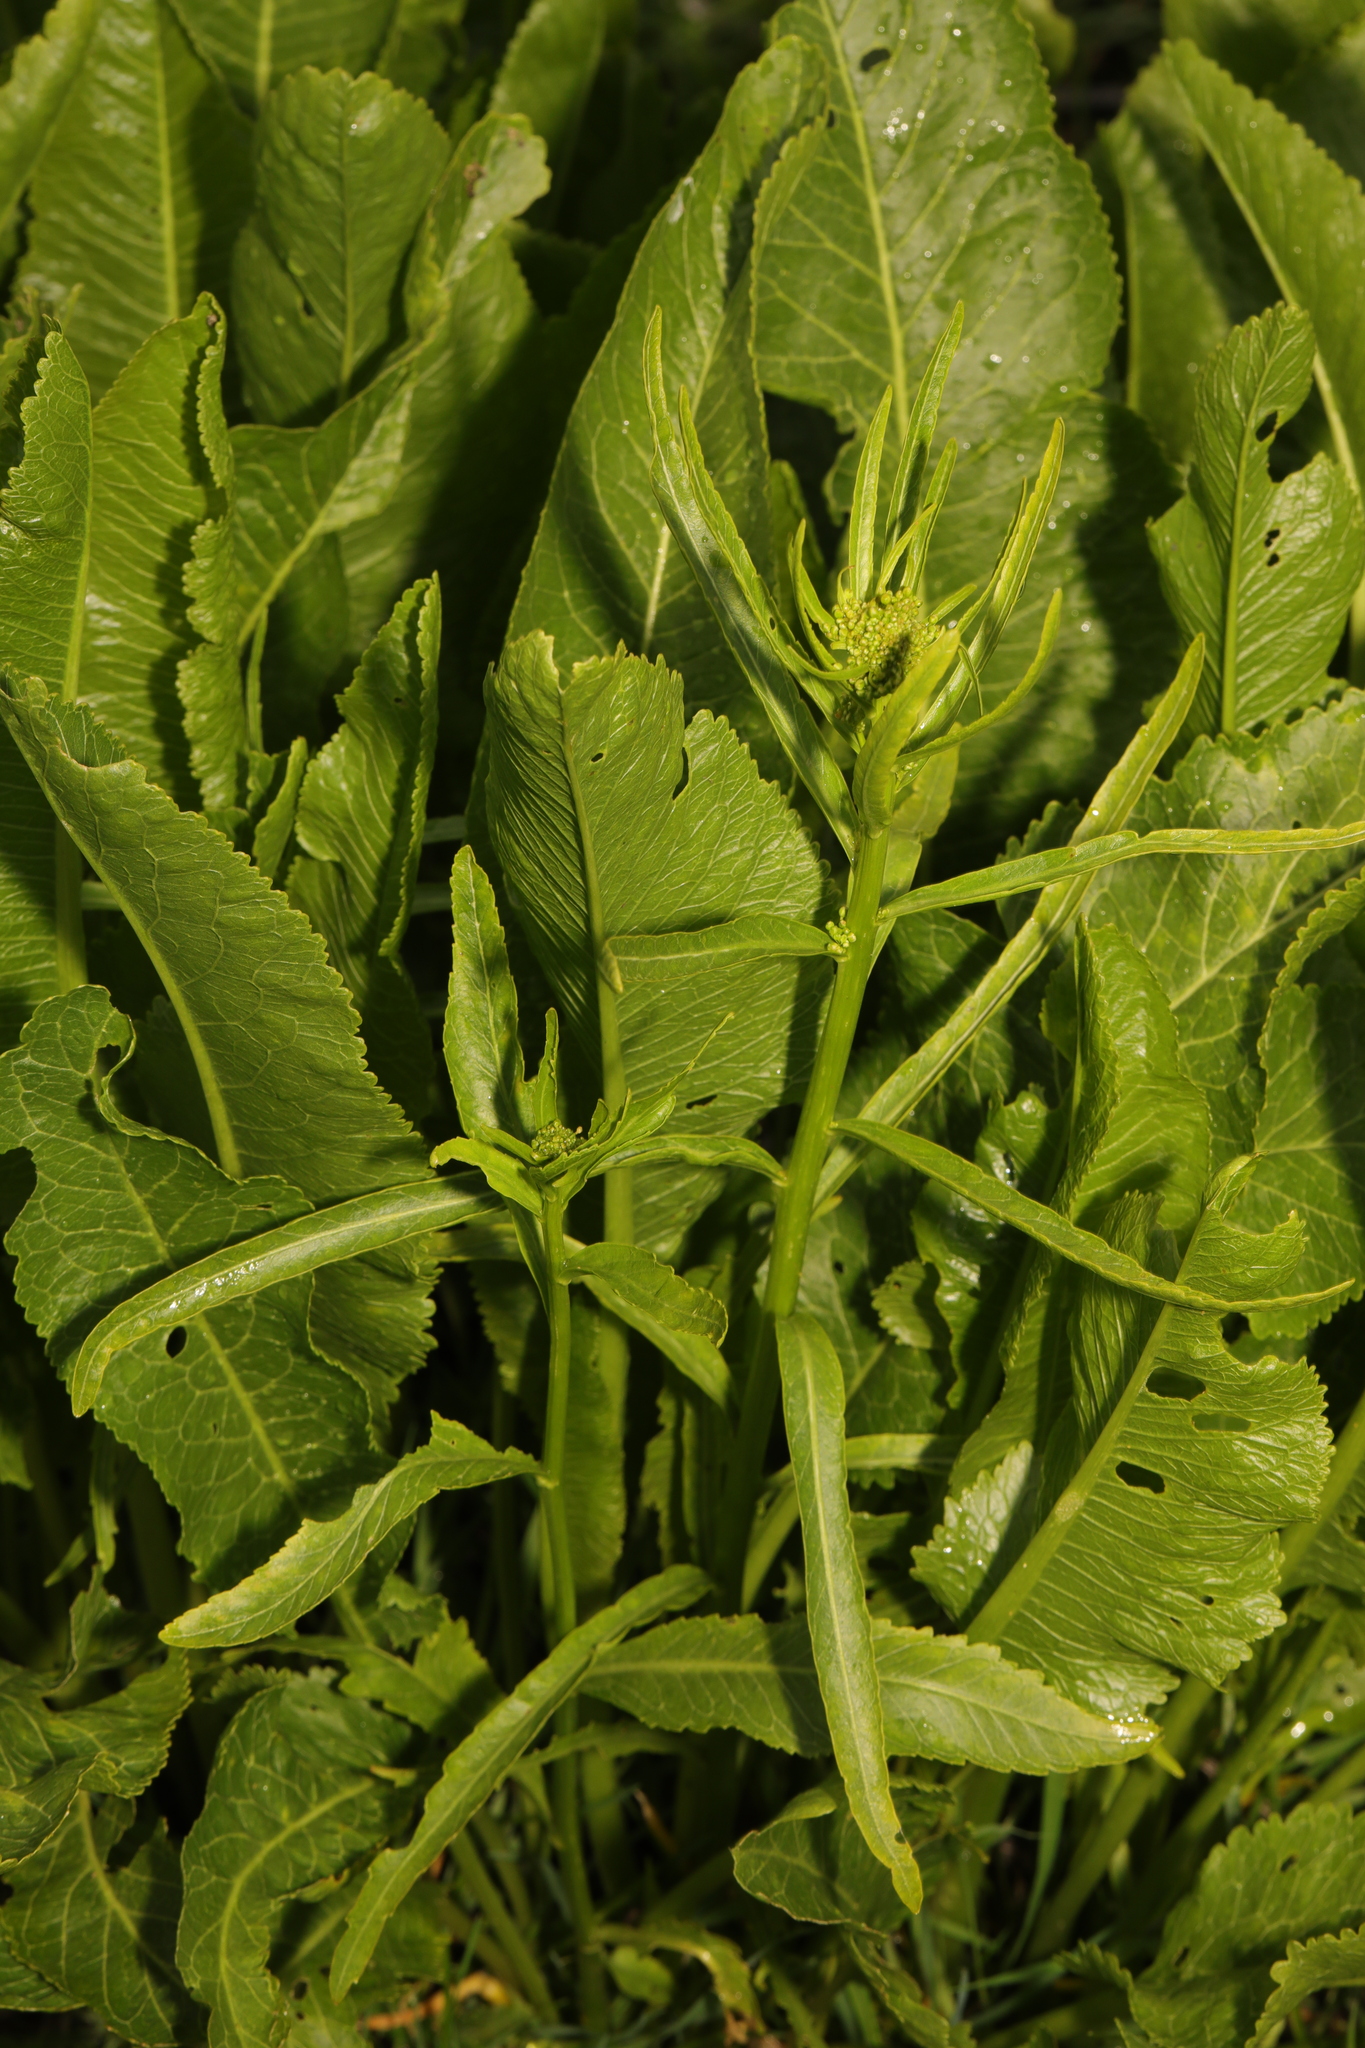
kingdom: Plantae
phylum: Tracheophyta
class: Magnoliopsida
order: Brassicales
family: Brassicaceae
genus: Armoracia
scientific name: Armoracia rusticana
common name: Horseradish
